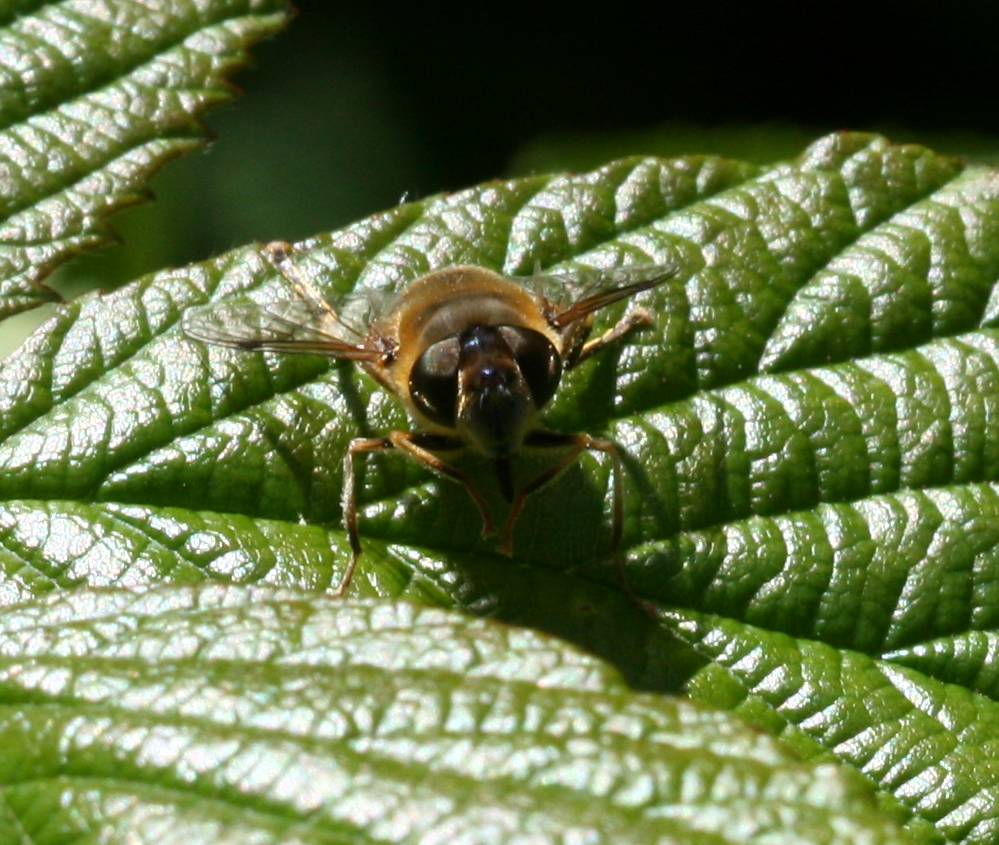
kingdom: Animalia
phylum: Arthropoda
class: Insecta
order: Diptera
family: Syrphidae
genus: Eristalis
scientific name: Eristalis pertinax
